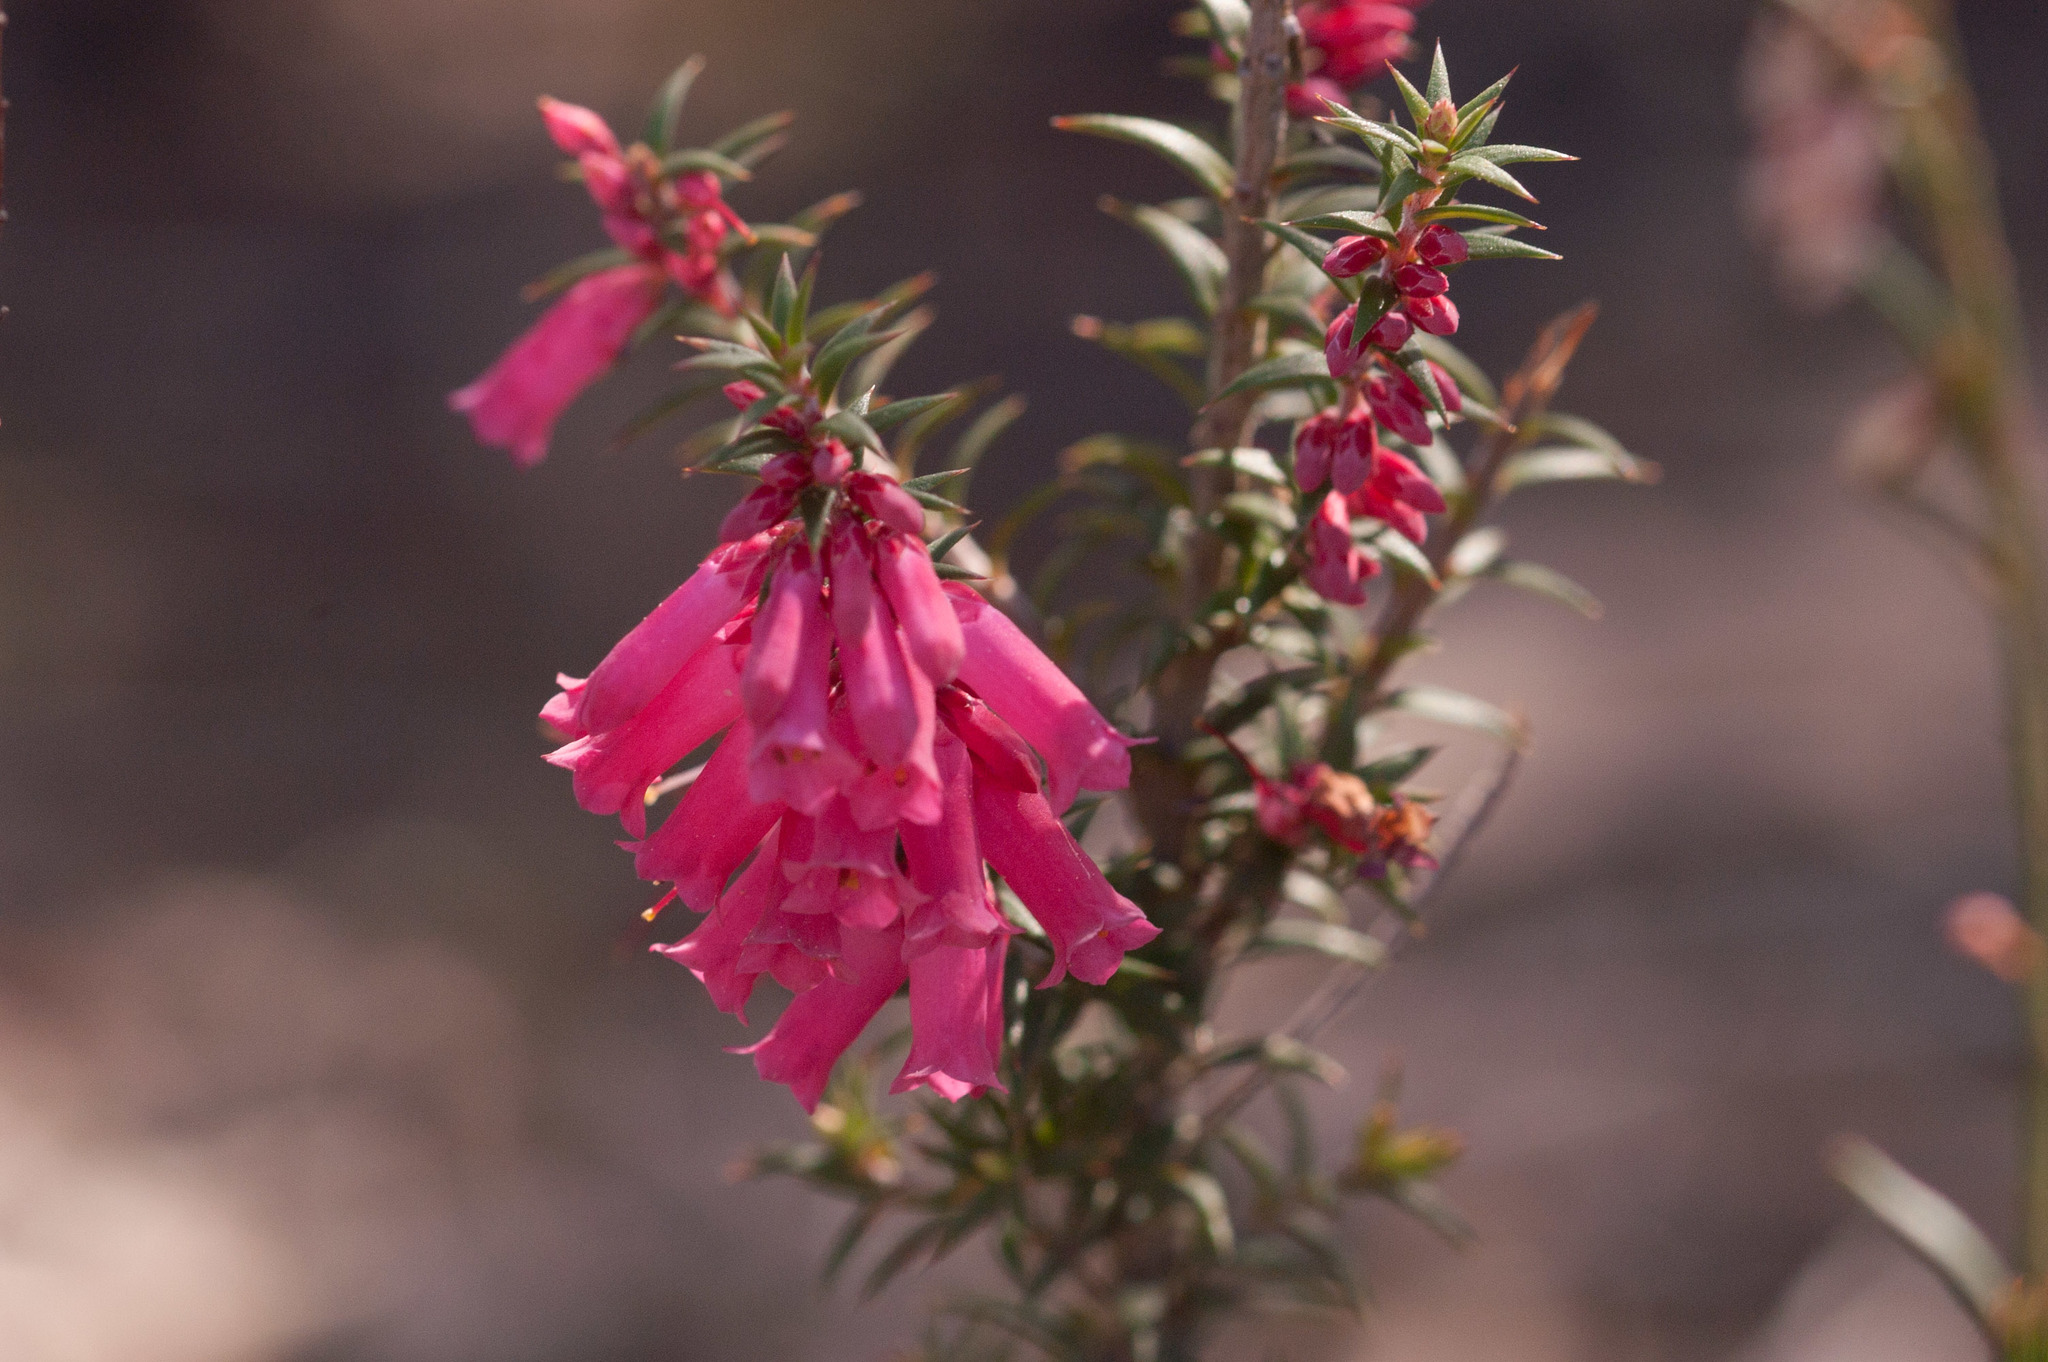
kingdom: Plantae
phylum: Tracheophyta
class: Magnoliopsida
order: Ericales
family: Ericaceae
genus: Epacris
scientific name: Epacris impressa
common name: Common-heath
